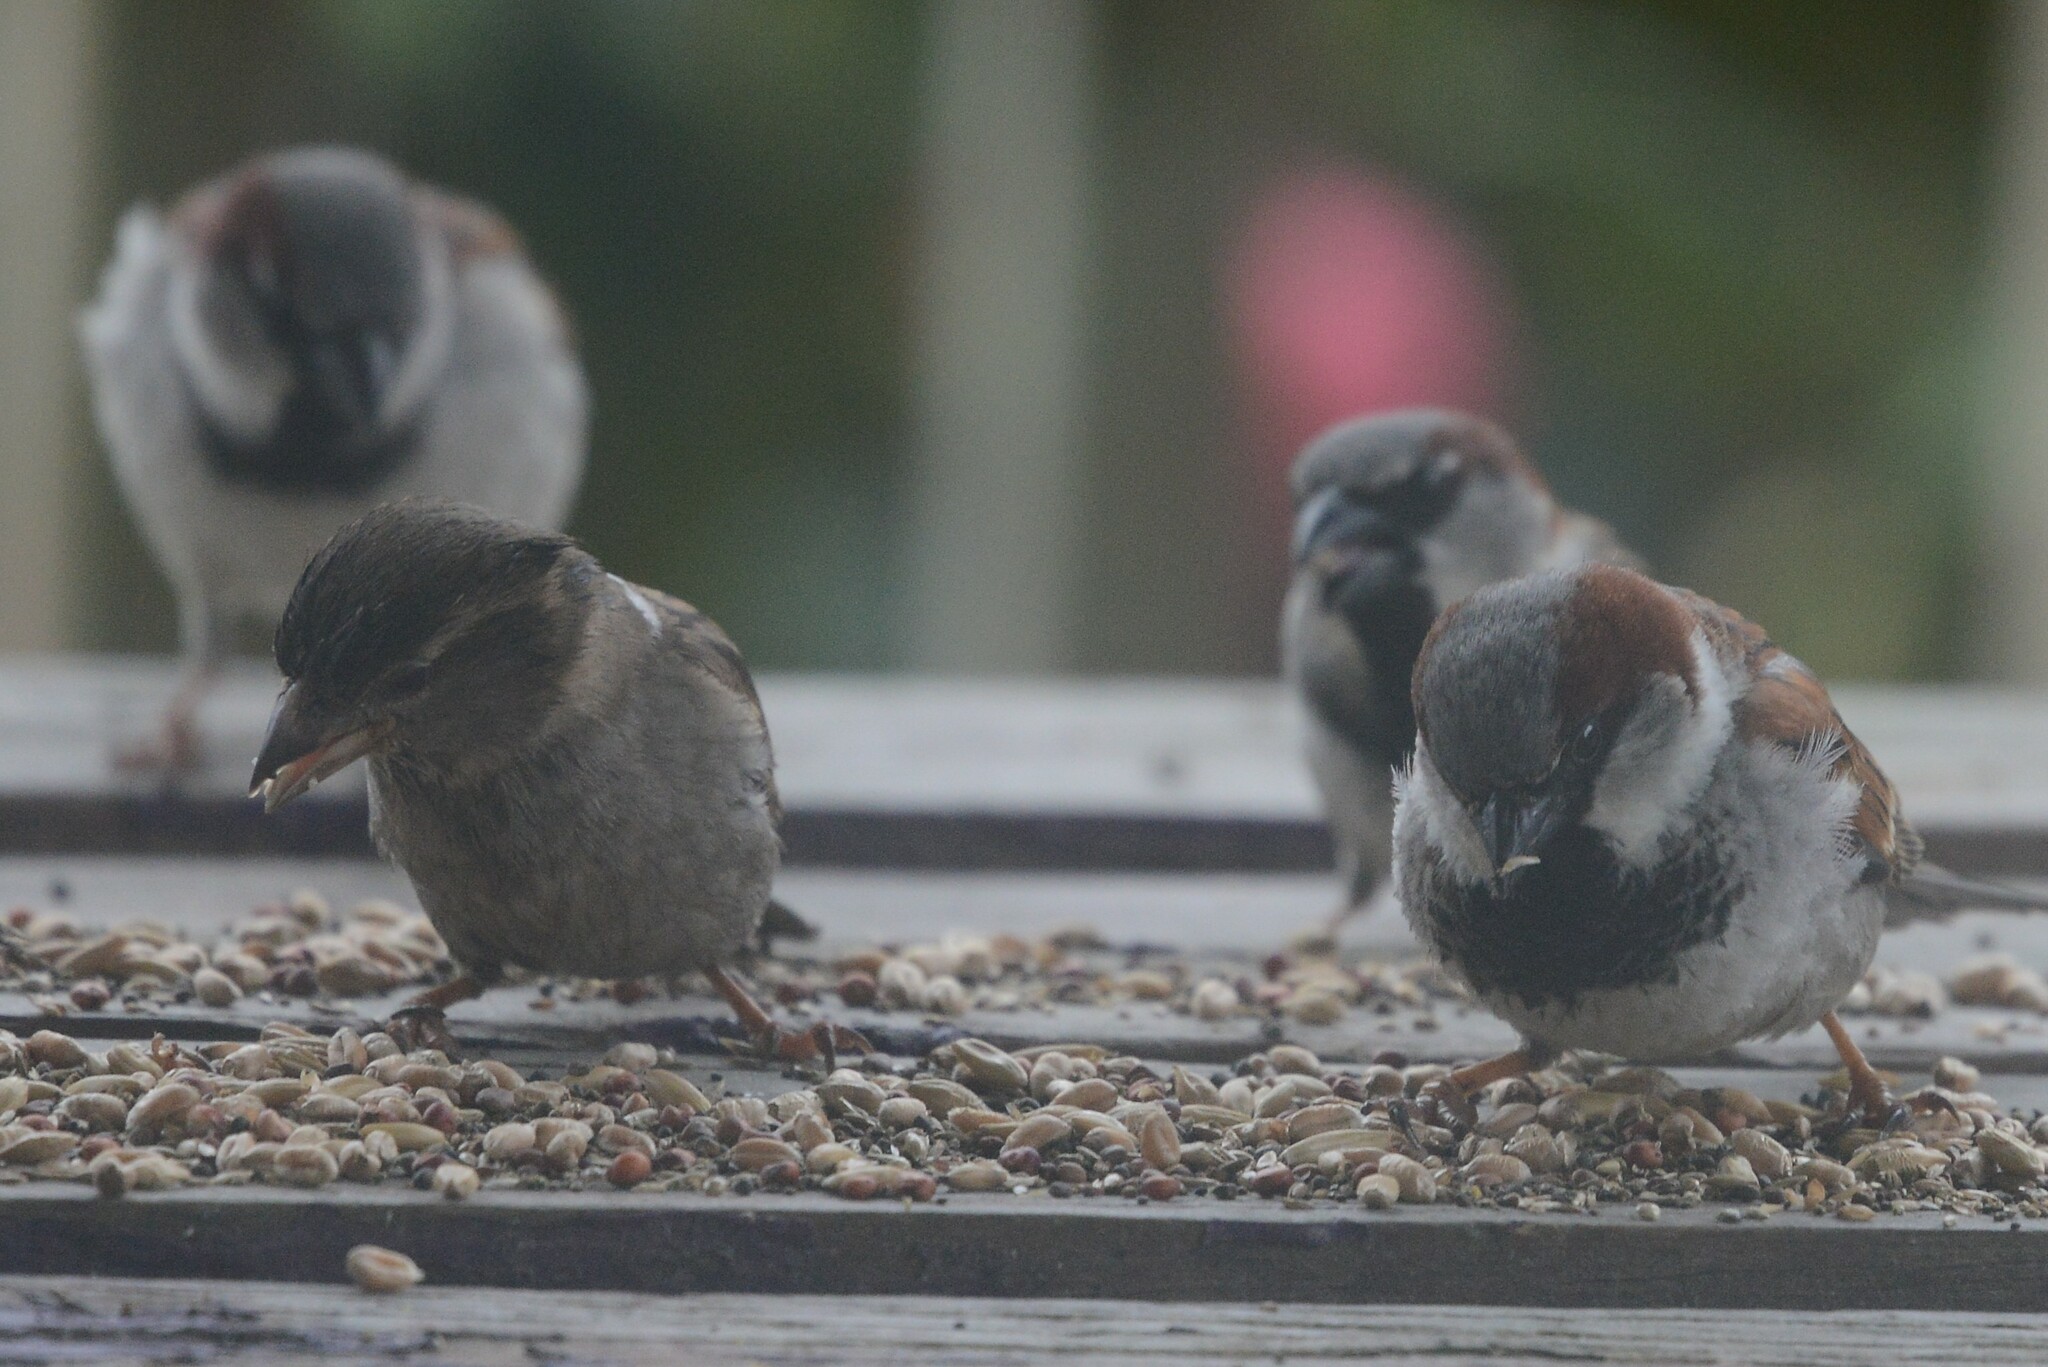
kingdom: Animalia
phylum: Chordata
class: Aves
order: Passeriformes
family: Passeridae
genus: Passer
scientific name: Passer domesticus
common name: House sparrow
